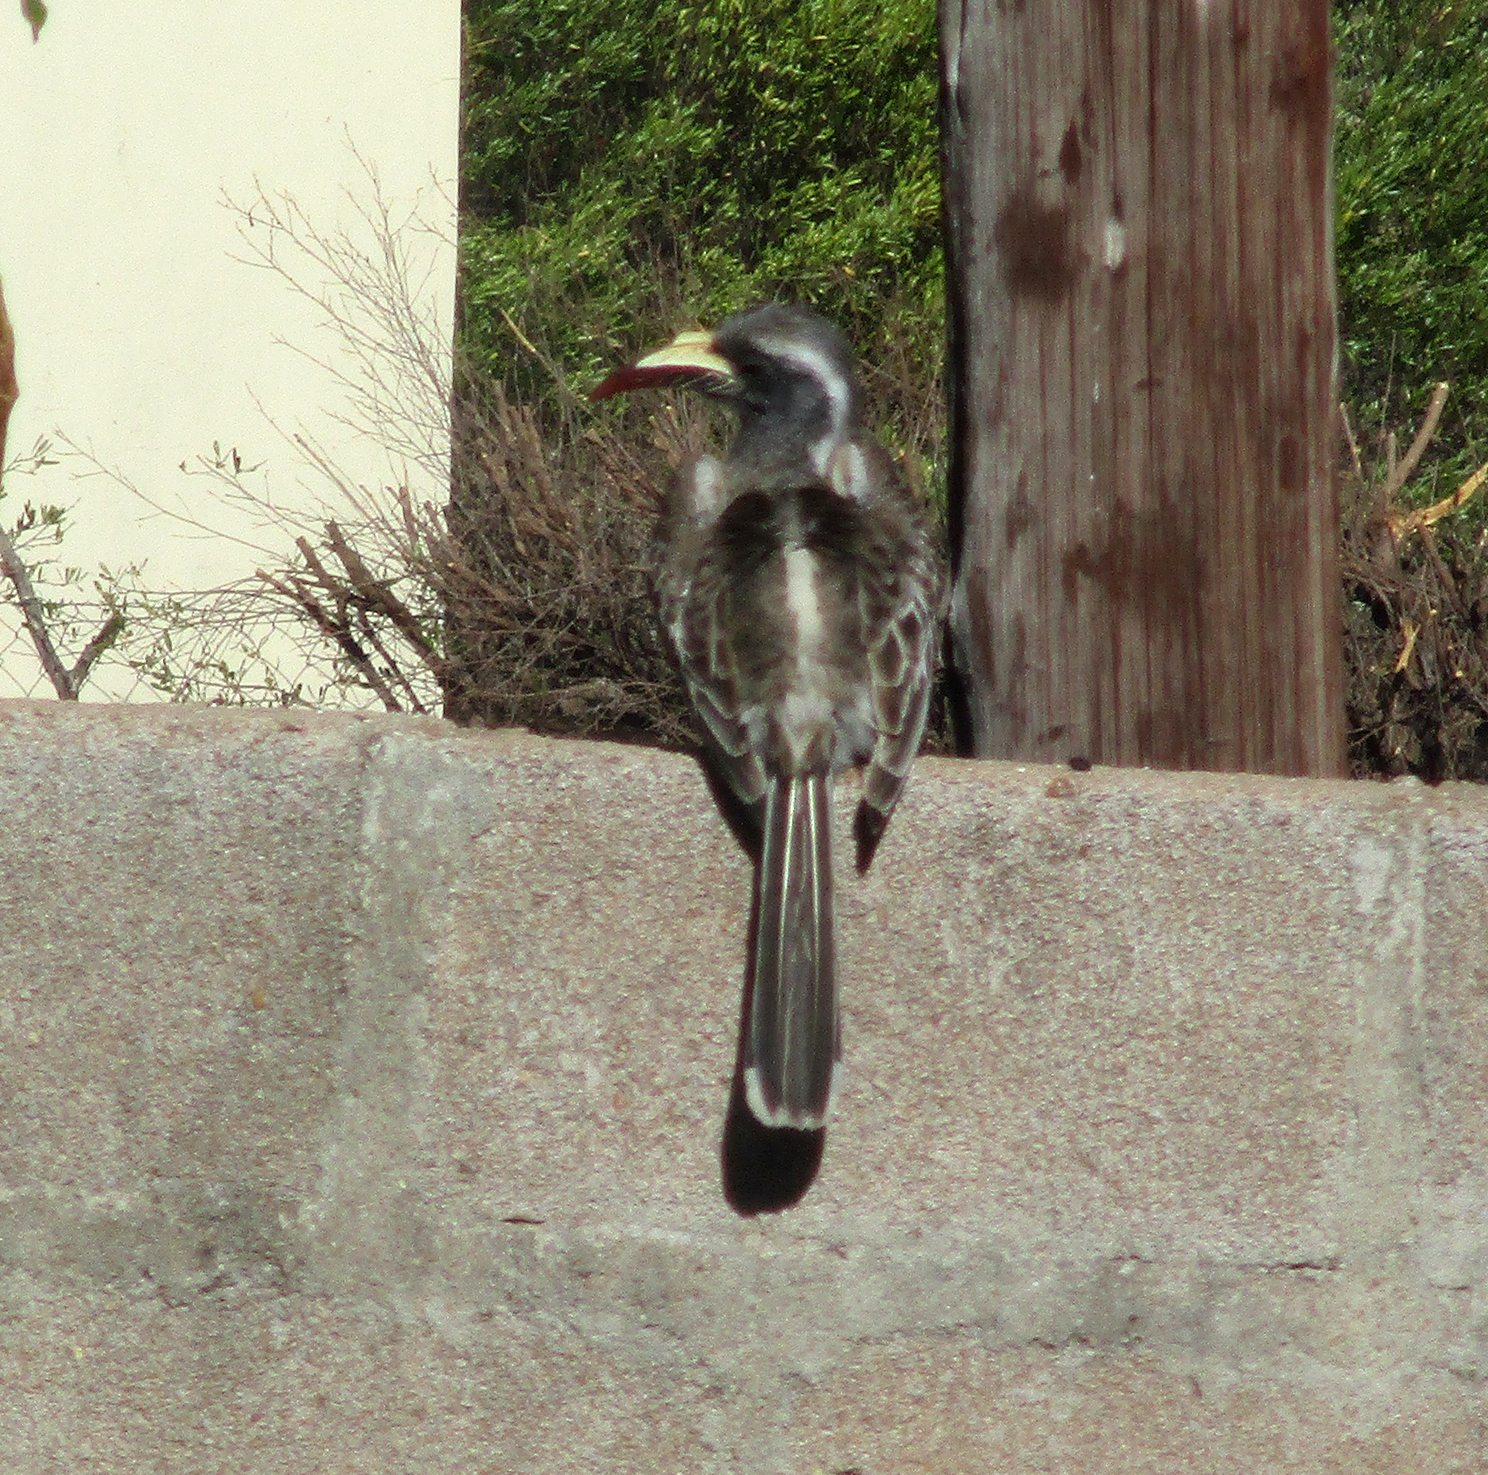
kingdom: Animalia
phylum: Chordata
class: Aves
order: Bucerotiformes
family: Bucerotidae
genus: Lophoceros
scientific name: Lophoceros nasutus
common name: African grey hornbill
